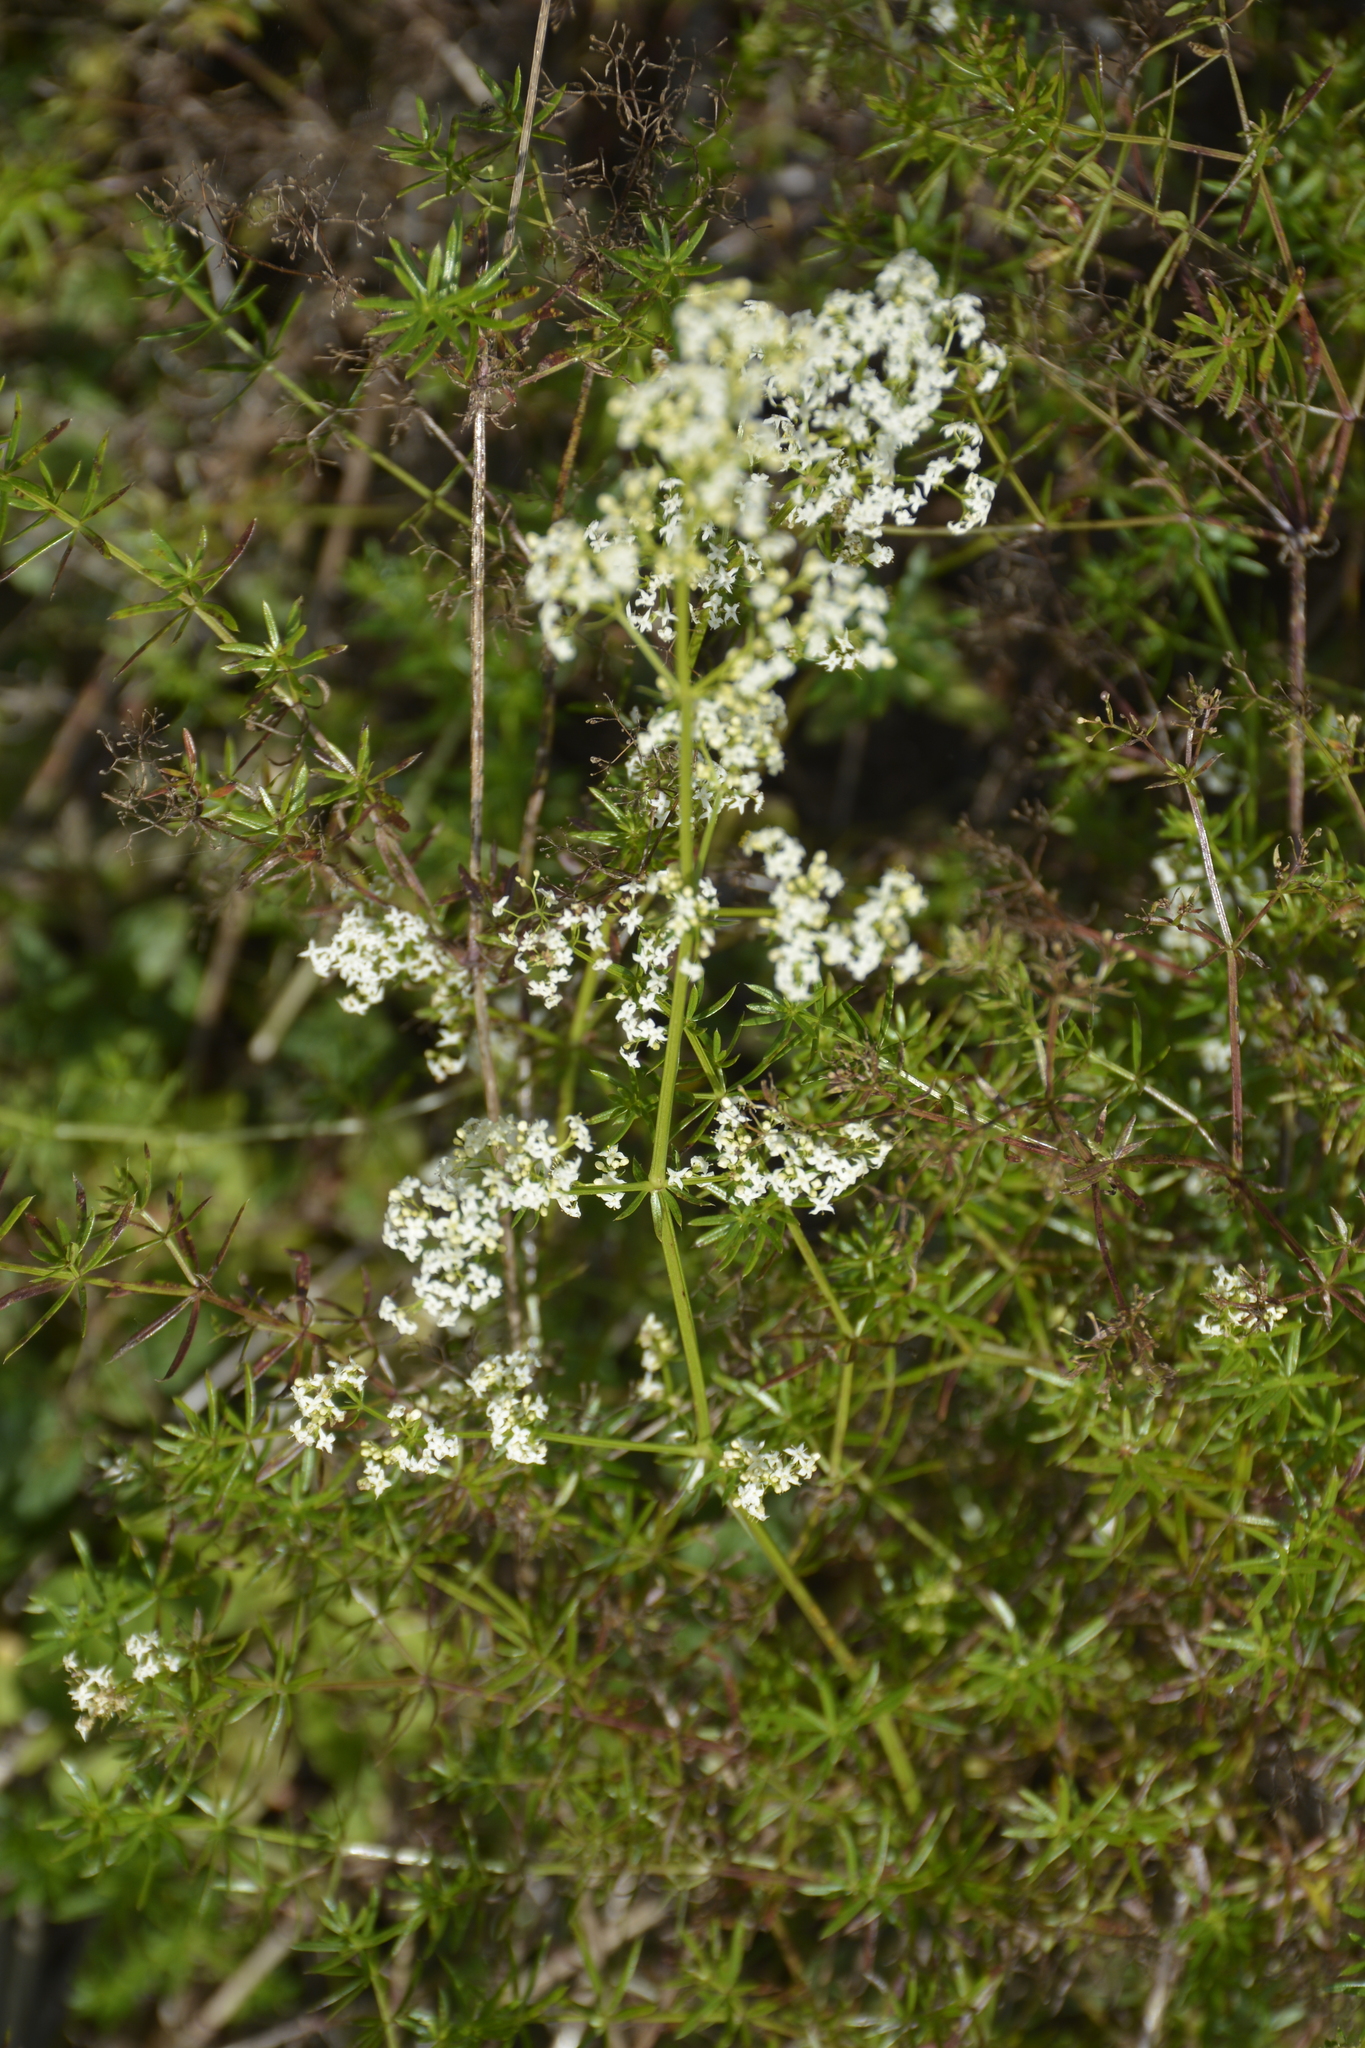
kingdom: Plantae
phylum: Tracheophyta
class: Magnoliopsida
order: Gentianales
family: Rubiaceae
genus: Galium
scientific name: Galium mollugo
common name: Hedge bedstraw
